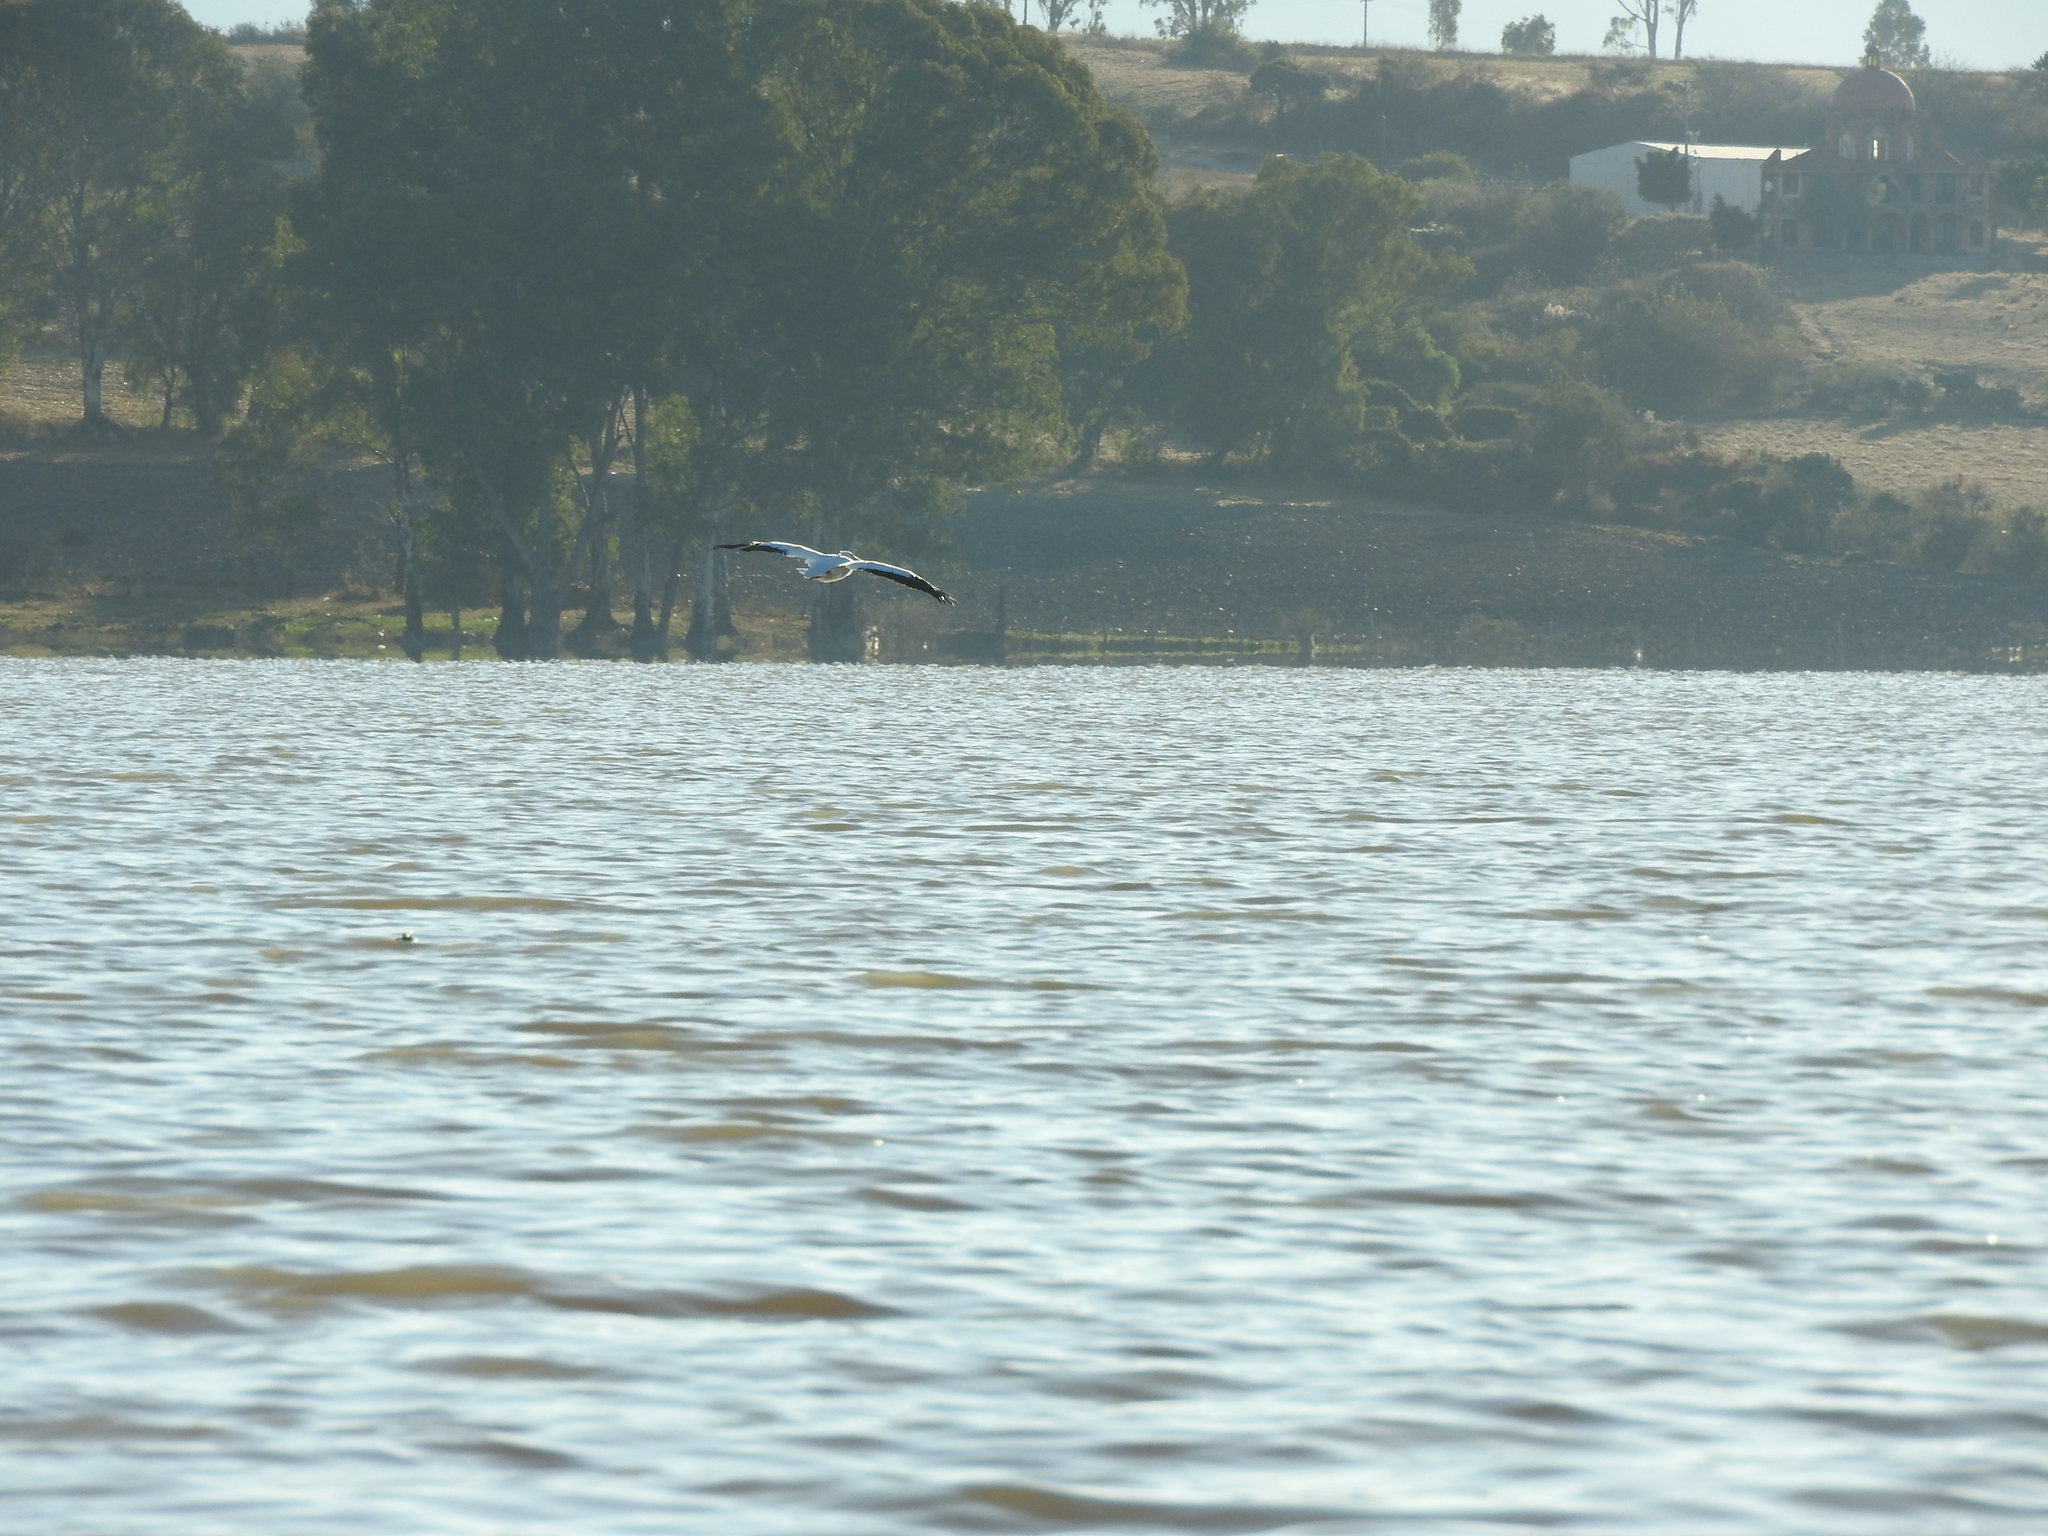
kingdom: Animalia
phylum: Chordata
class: Aves
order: Pelecaniformes
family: Pelecanidae
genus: Pelecanus
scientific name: Pelecanus erythrorhynchos
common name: American white pelican
